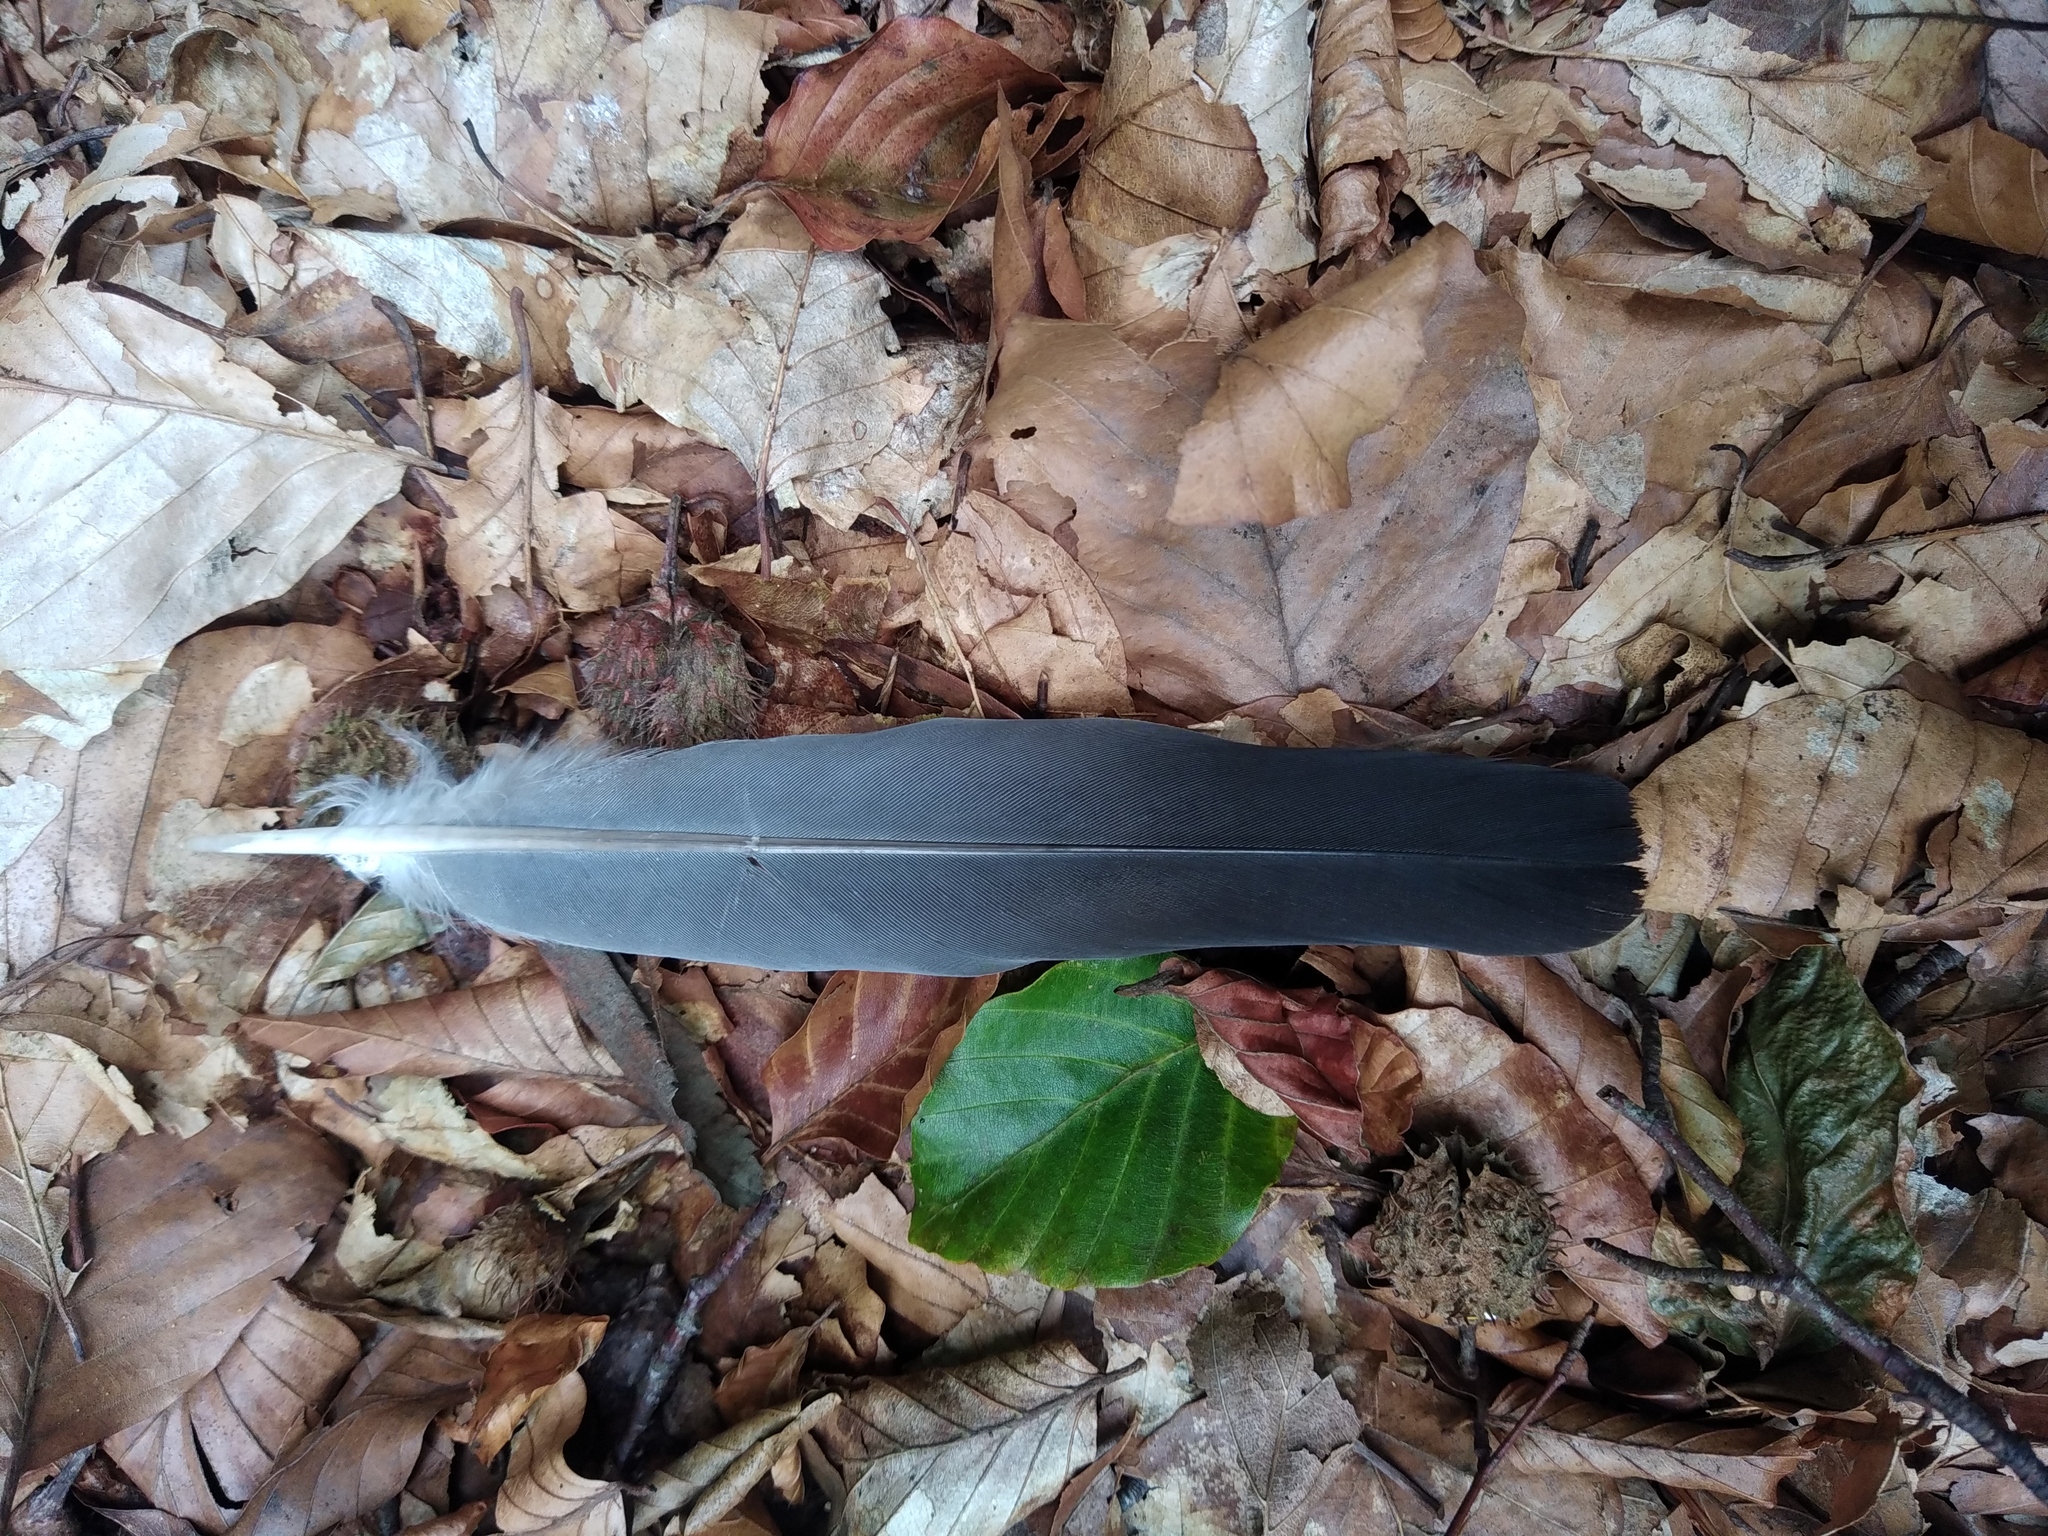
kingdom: Animalia
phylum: Chordata
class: Aves
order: Columbiformes
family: Columbidae
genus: Columba
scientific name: Columba palumbus
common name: Common wood pigeon
